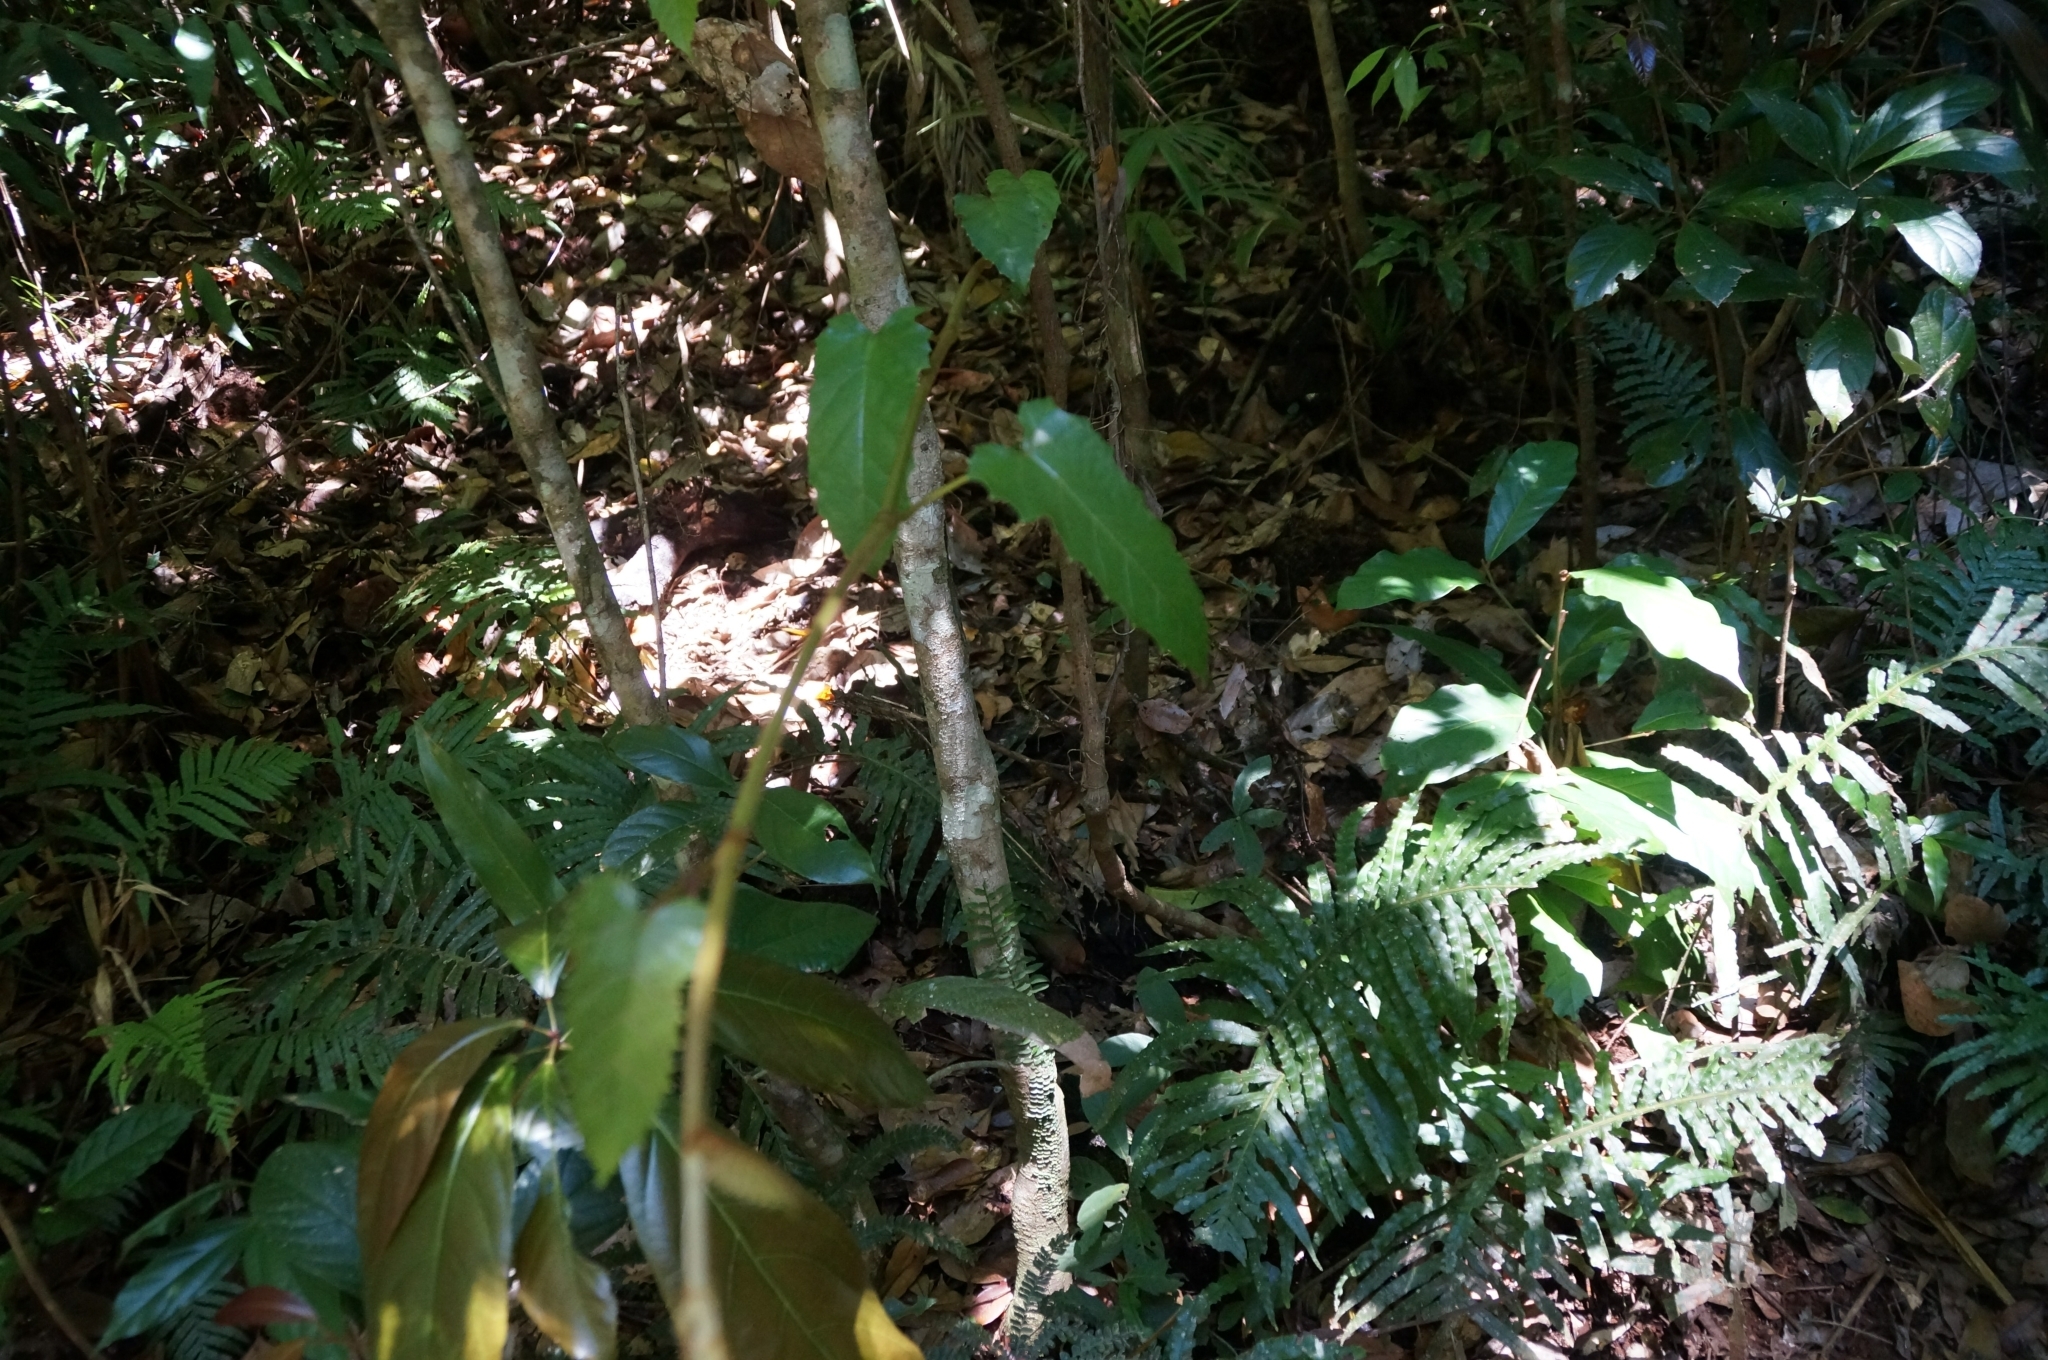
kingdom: Plantae
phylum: Tracheophyta
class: Magnoliopsida
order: Vitales
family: Vitaceae
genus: Cissus
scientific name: Cissus antarctica
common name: Kangaroo vine
